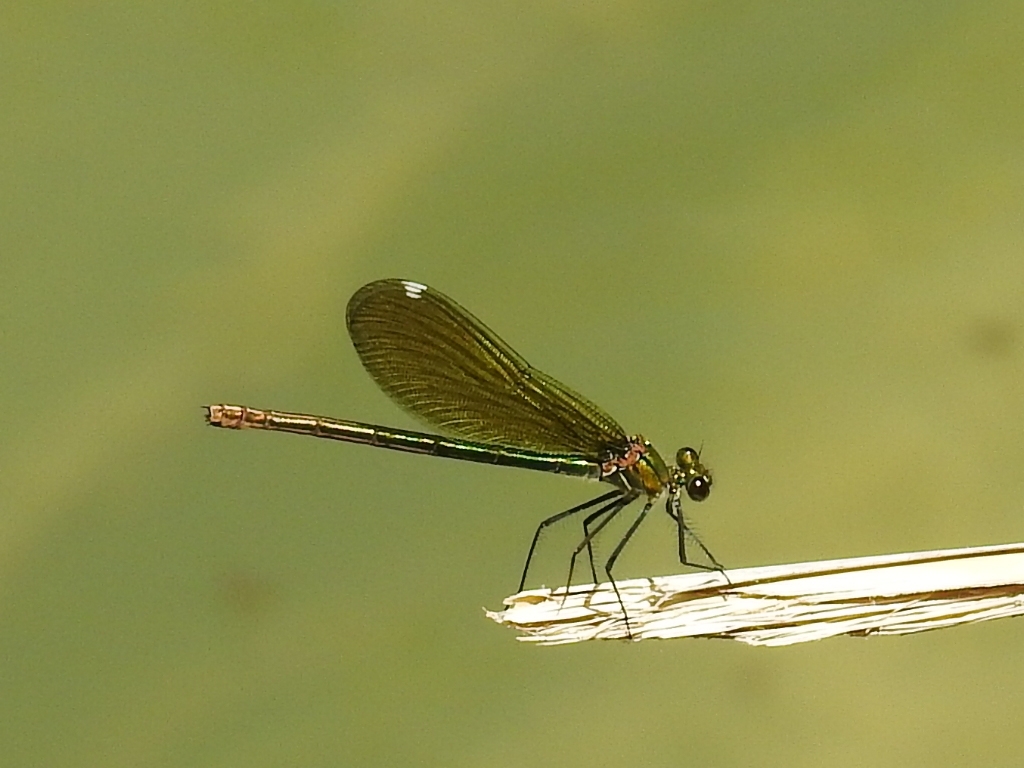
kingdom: Animalia
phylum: Arthropoda
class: Insecta
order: Odonata
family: Calopterygidae
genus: Calopteryx
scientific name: Calopteryx splendens
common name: Banded demoiselle
